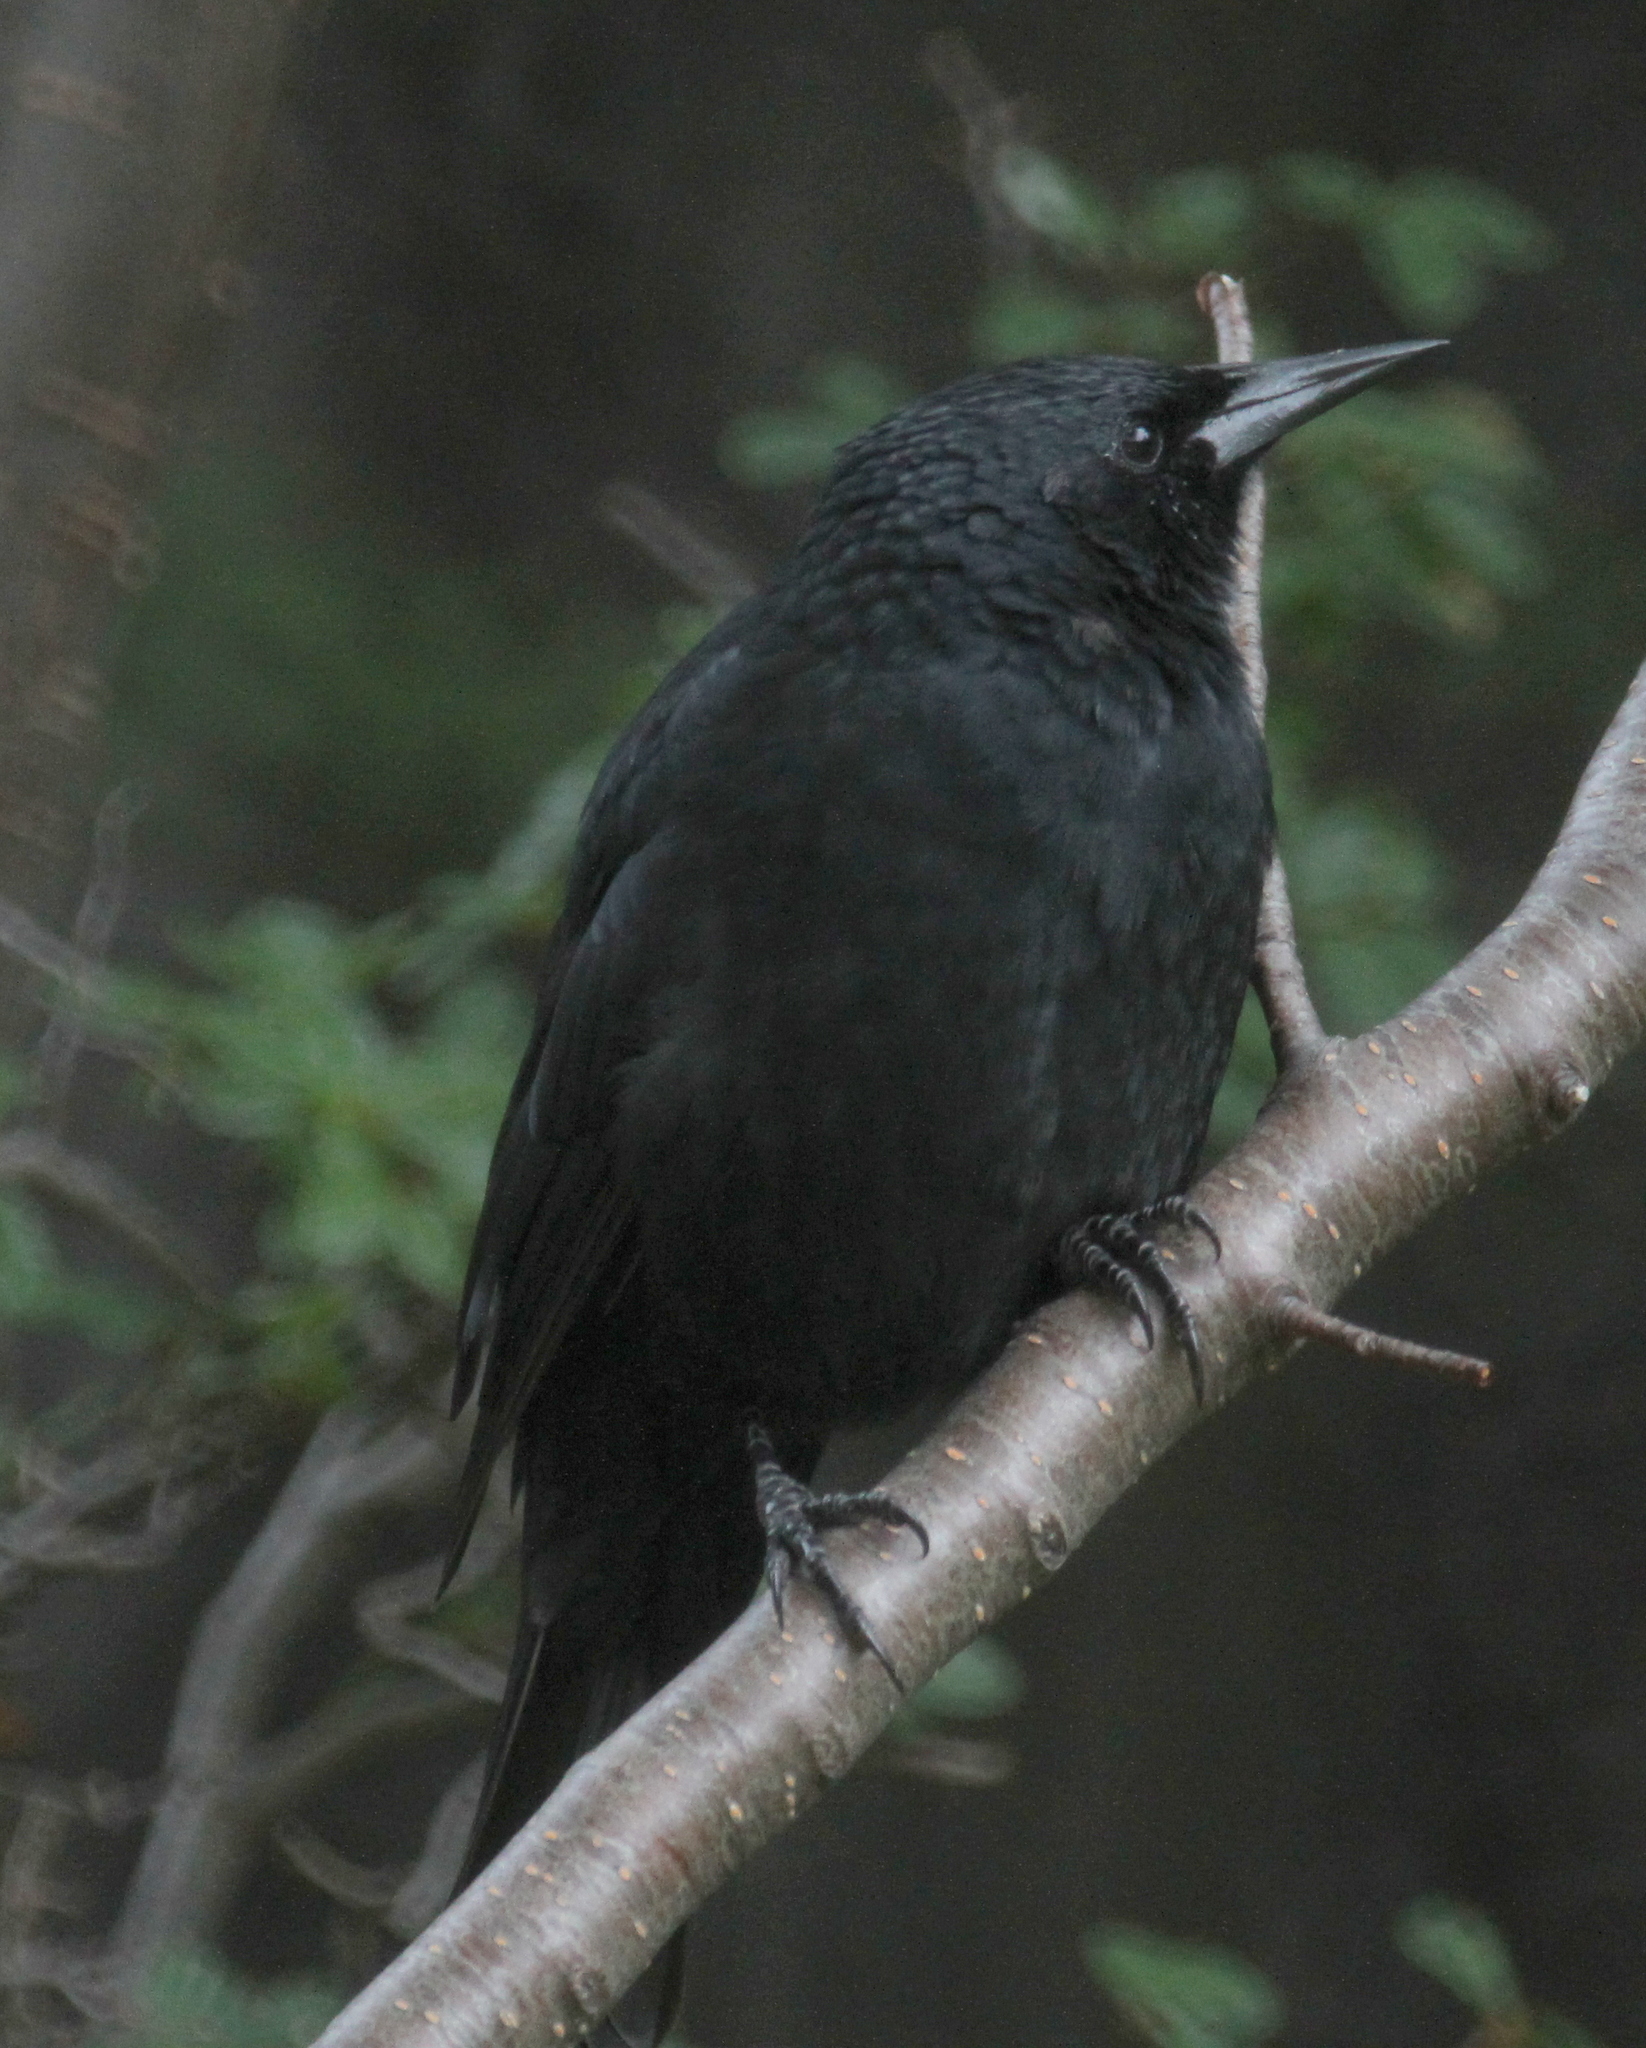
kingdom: Animalia
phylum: Chordata
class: Aves
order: Passeriformes
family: Icteridae
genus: Curaeus
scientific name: Curaeus curaeus
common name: Austral blackbird
